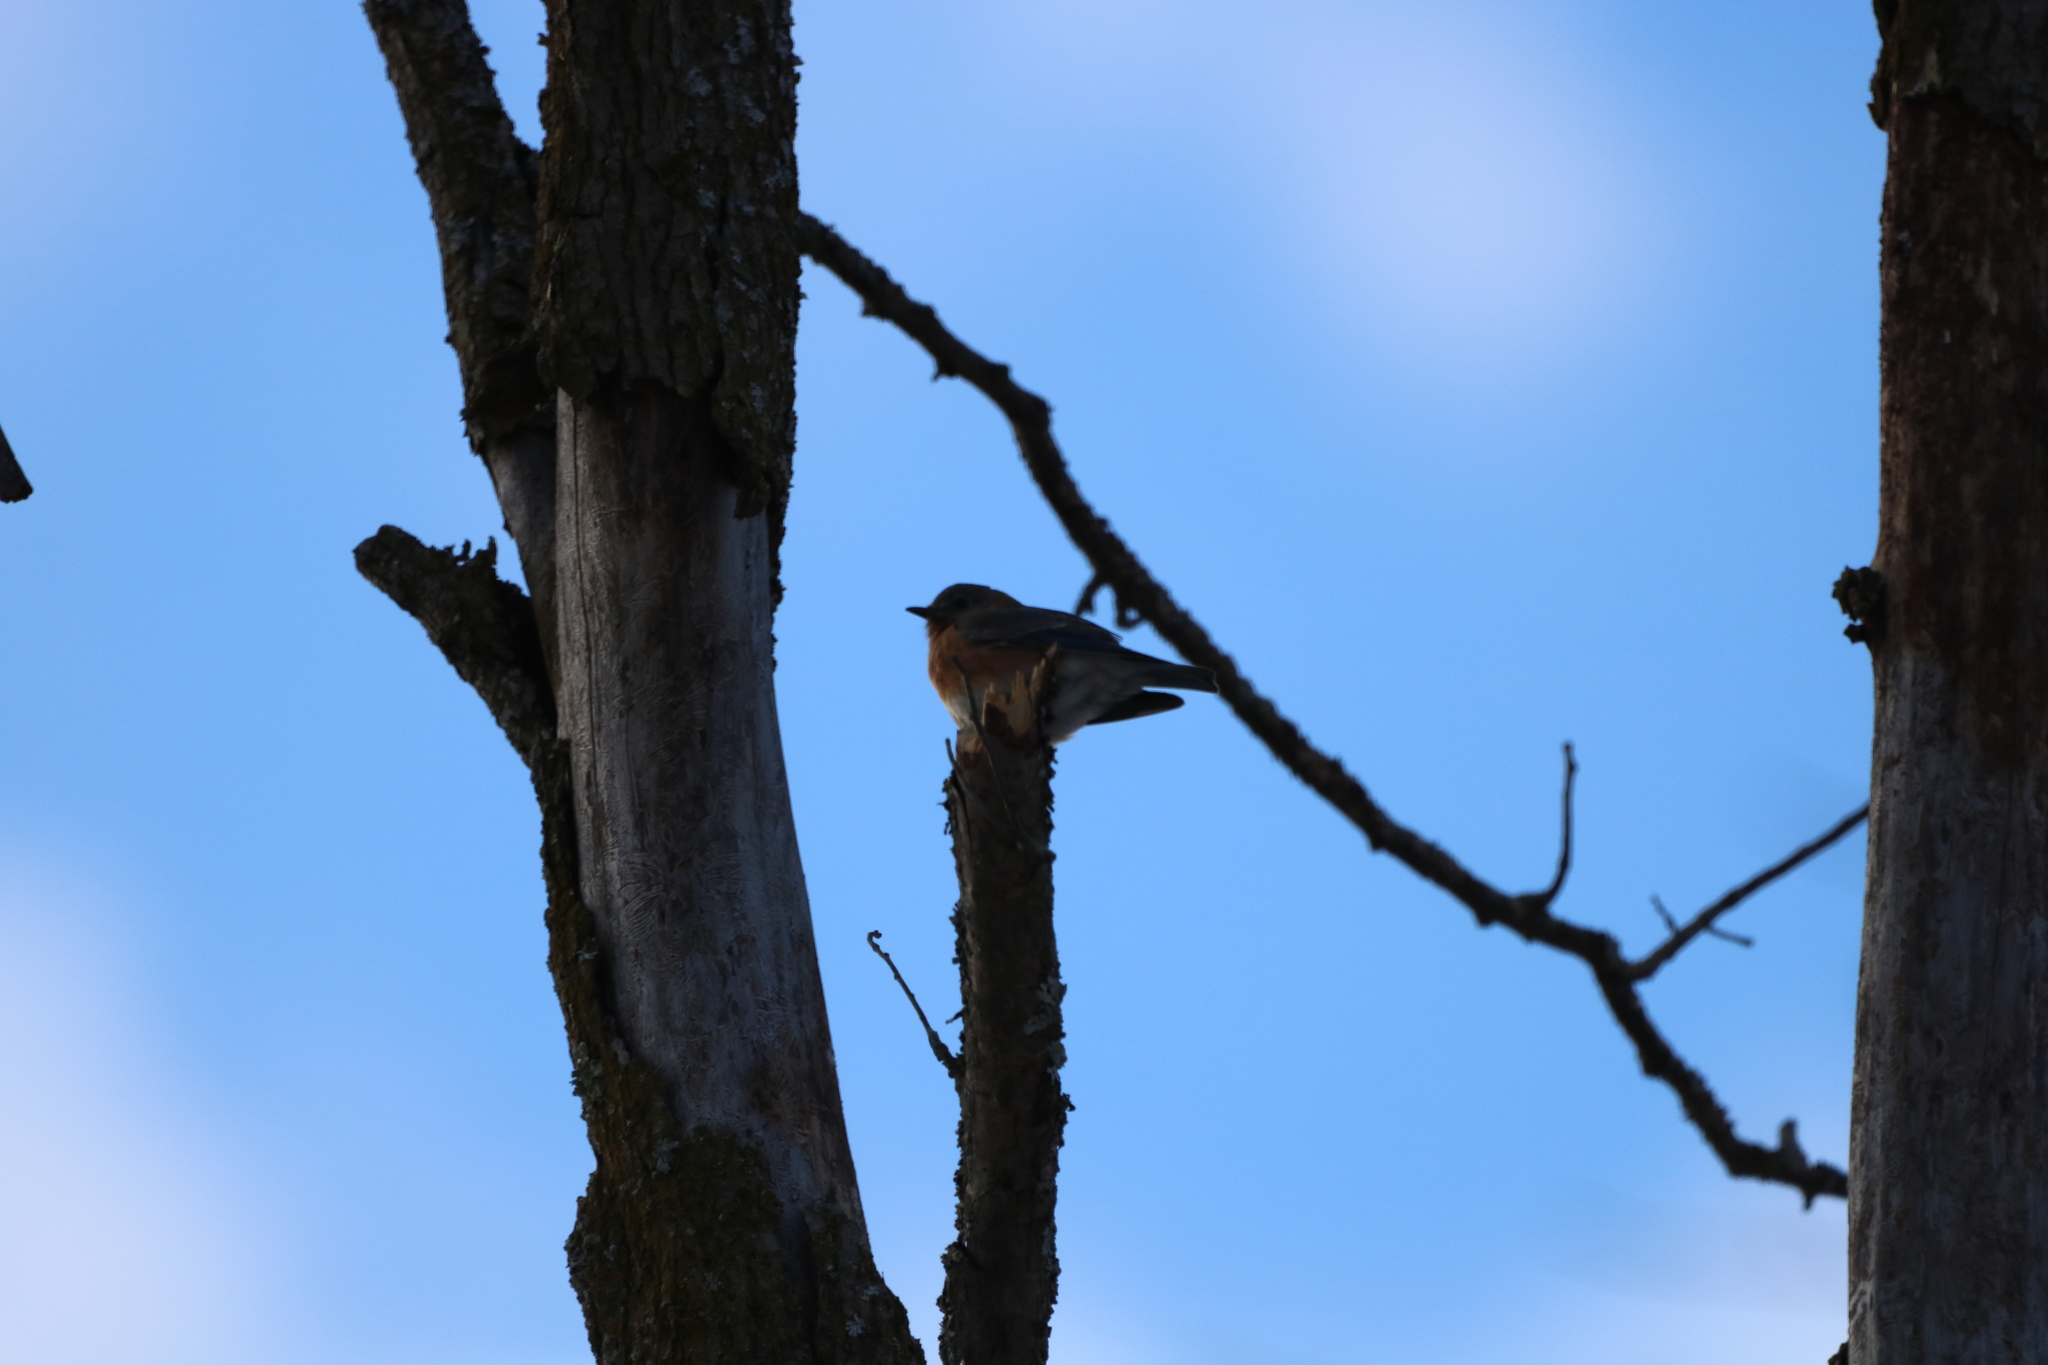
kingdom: Animalia
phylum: Chordata
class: Aves
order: Passeriformes
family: Turdidae
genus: Sialia
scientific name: Sialia sialis
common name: Eastern bluebird
